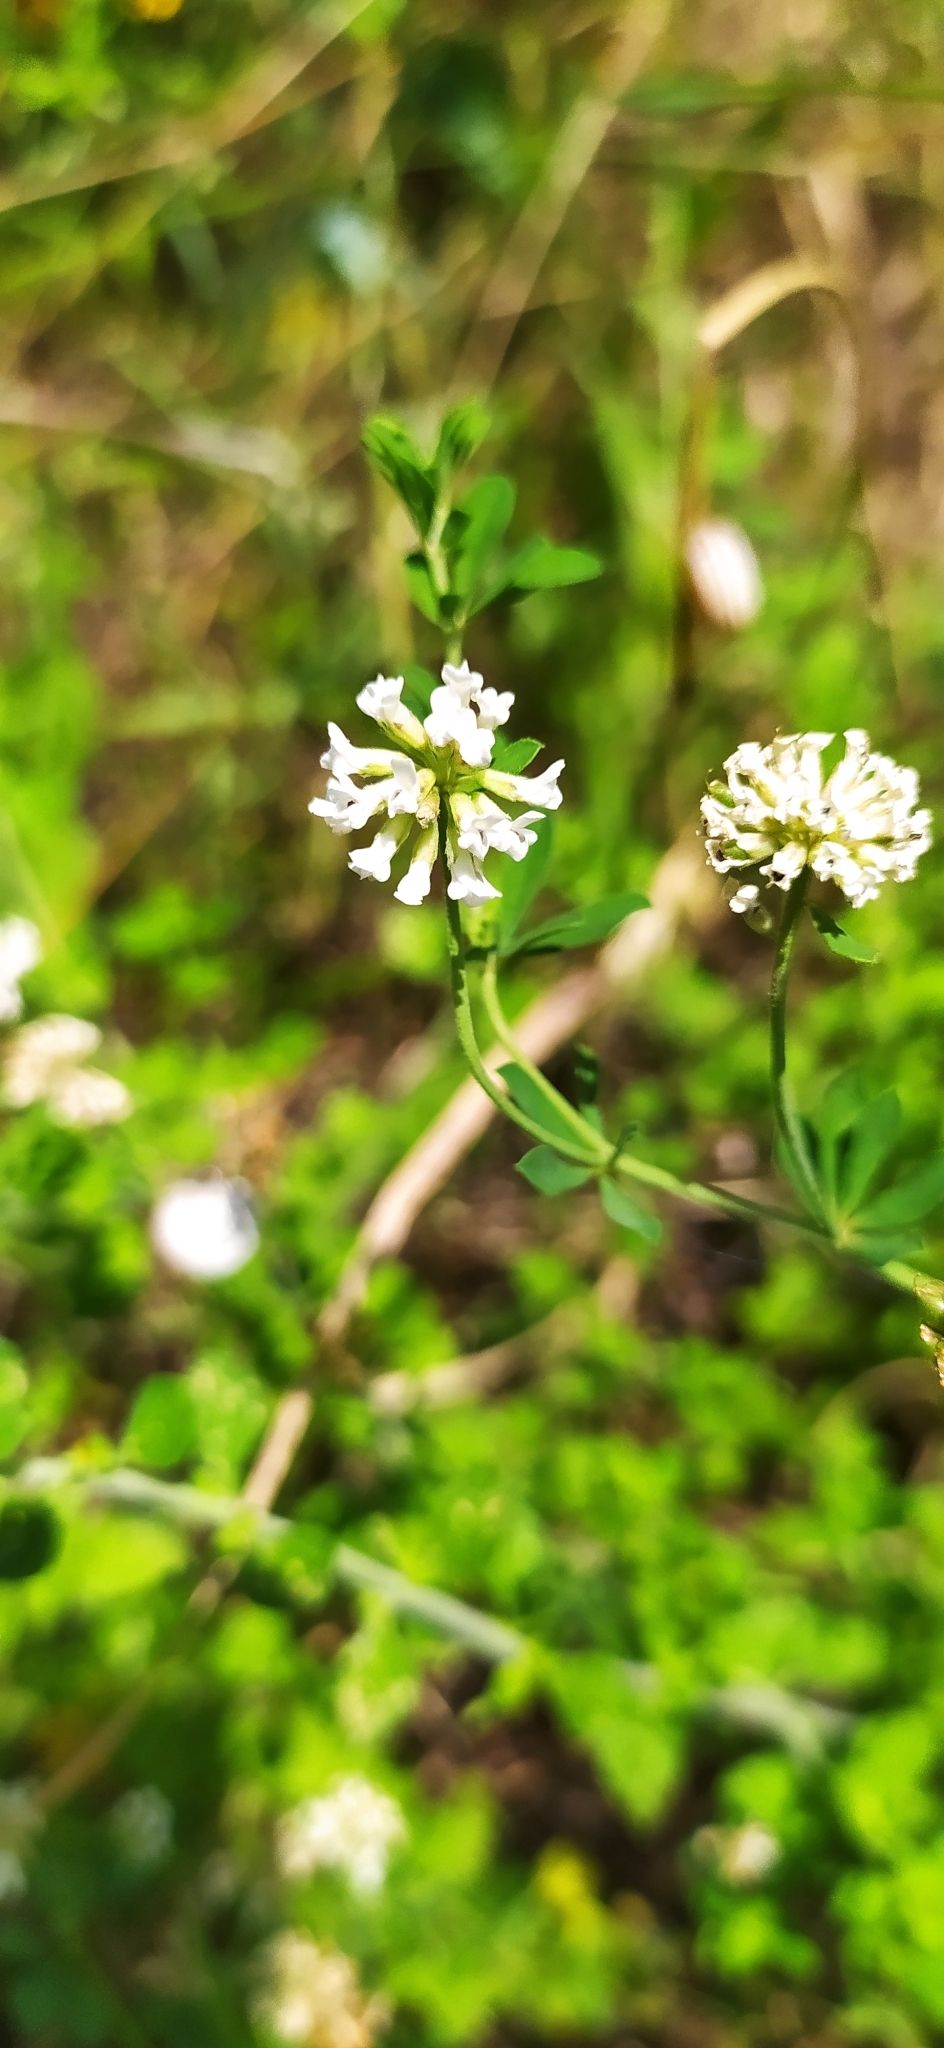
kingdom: Plantae
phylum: Tracheophyta
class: Magnoliopsida
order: Fabales
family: Fabaceae
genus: Lotus
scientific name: Lotus herbaceus
